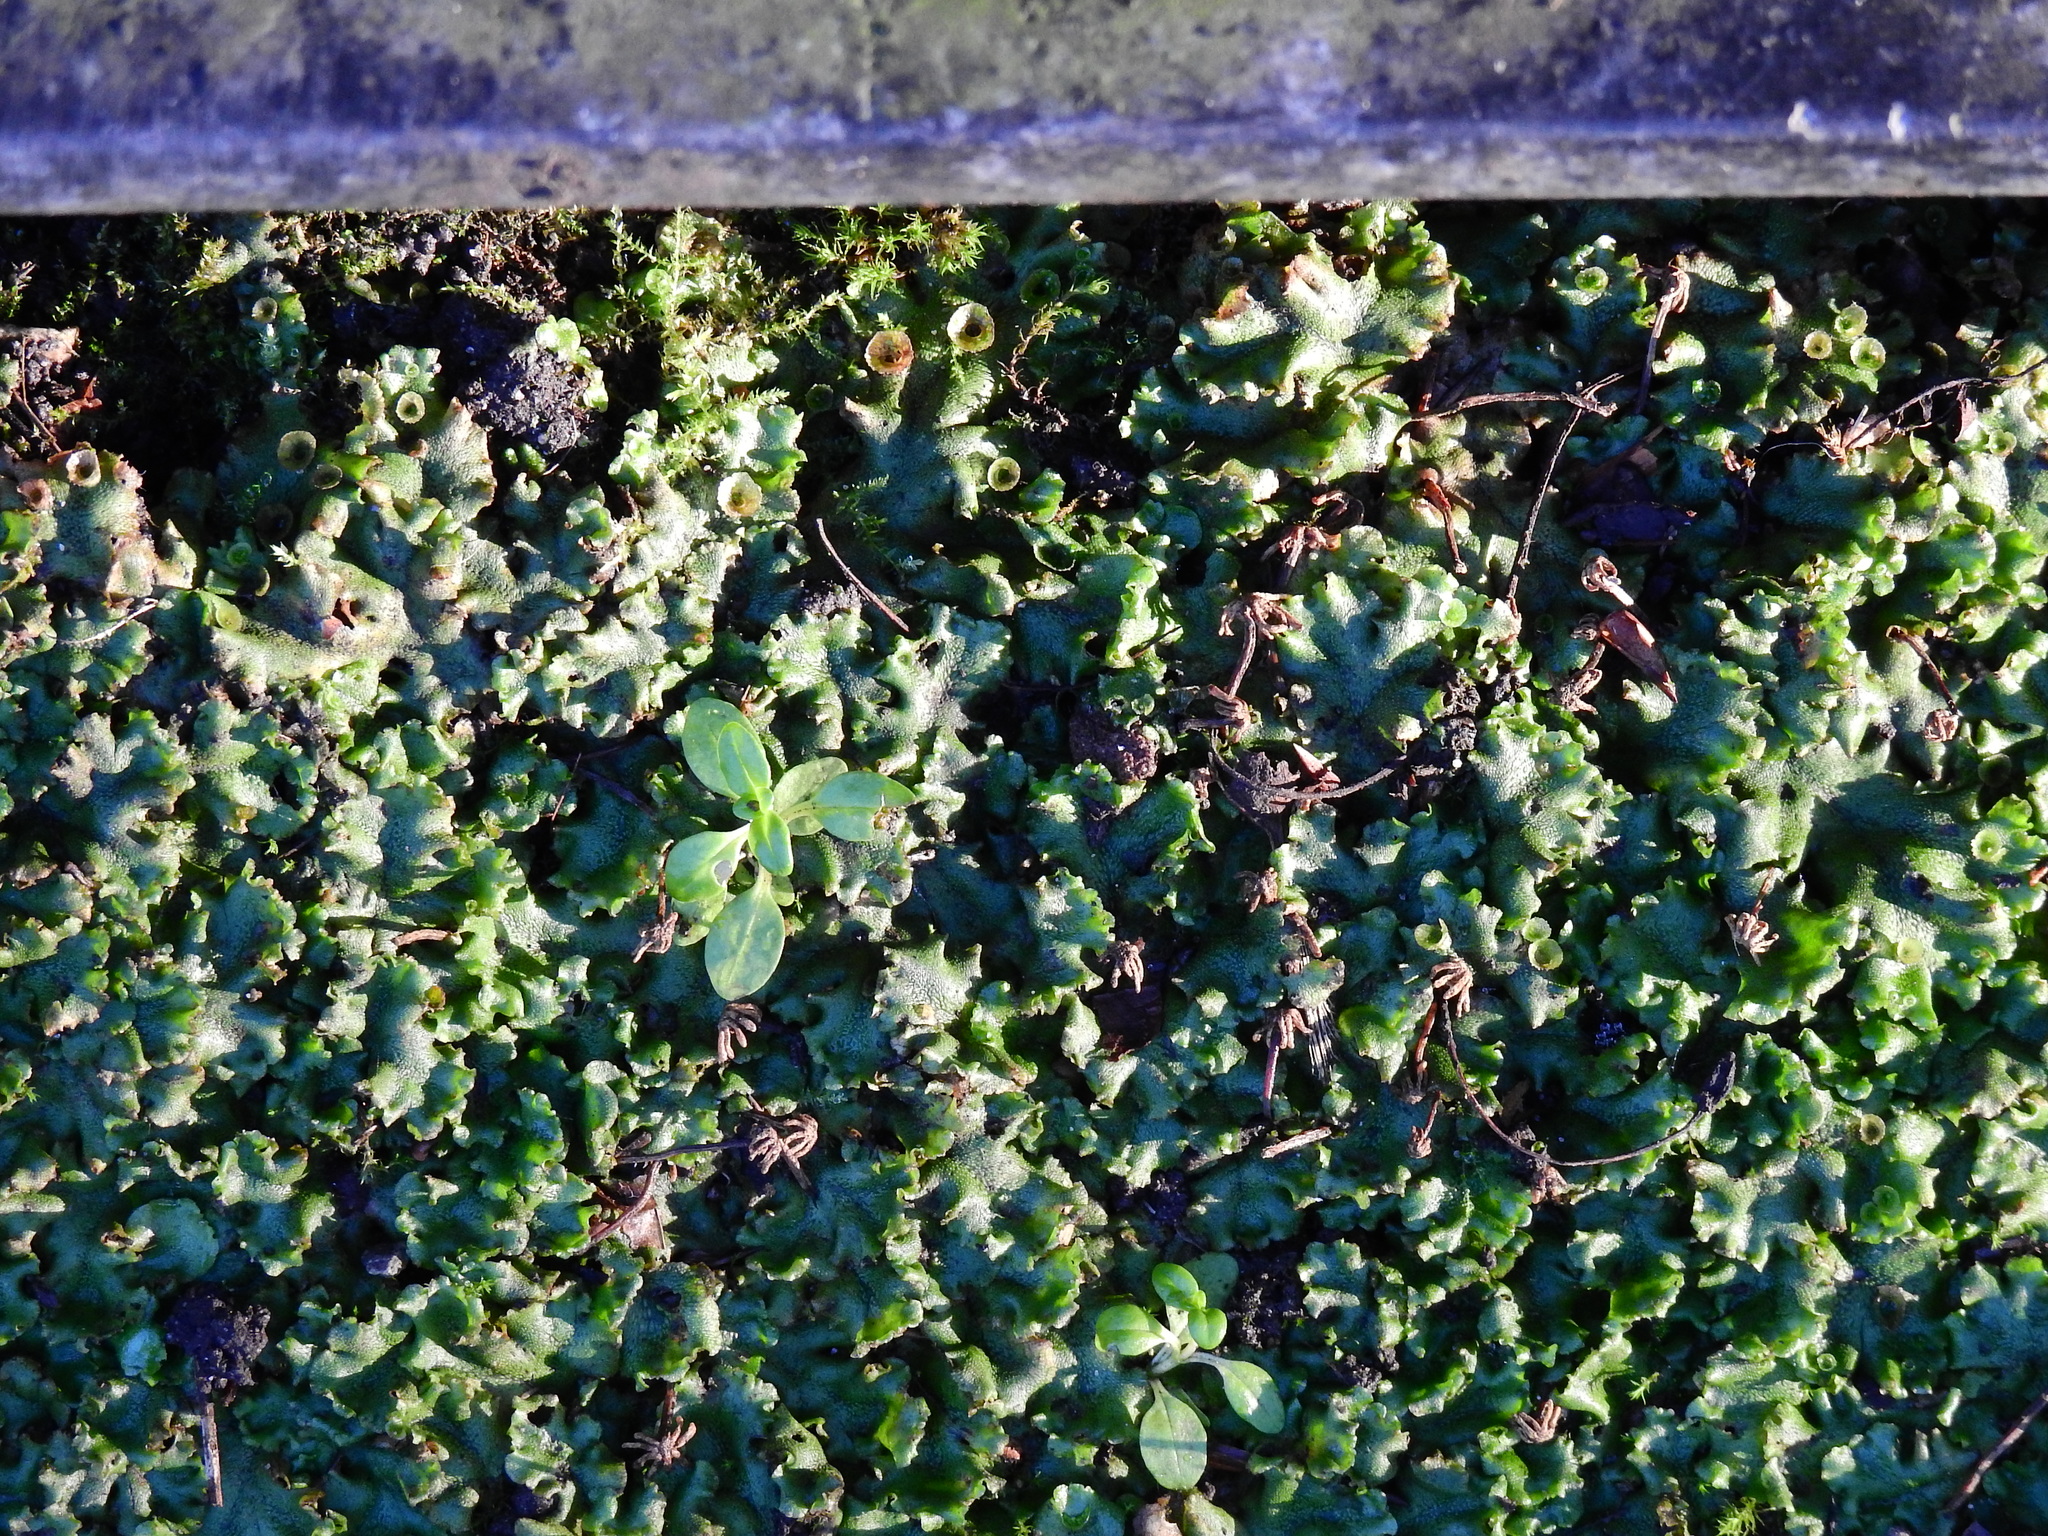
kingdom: Plantae
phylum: Marchantiophyta
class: Marchantiopsida
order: Marchantiales
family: Marchantiaceae
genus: Marchantia
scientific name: Marchantia polymorpha
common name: Common liverwort
